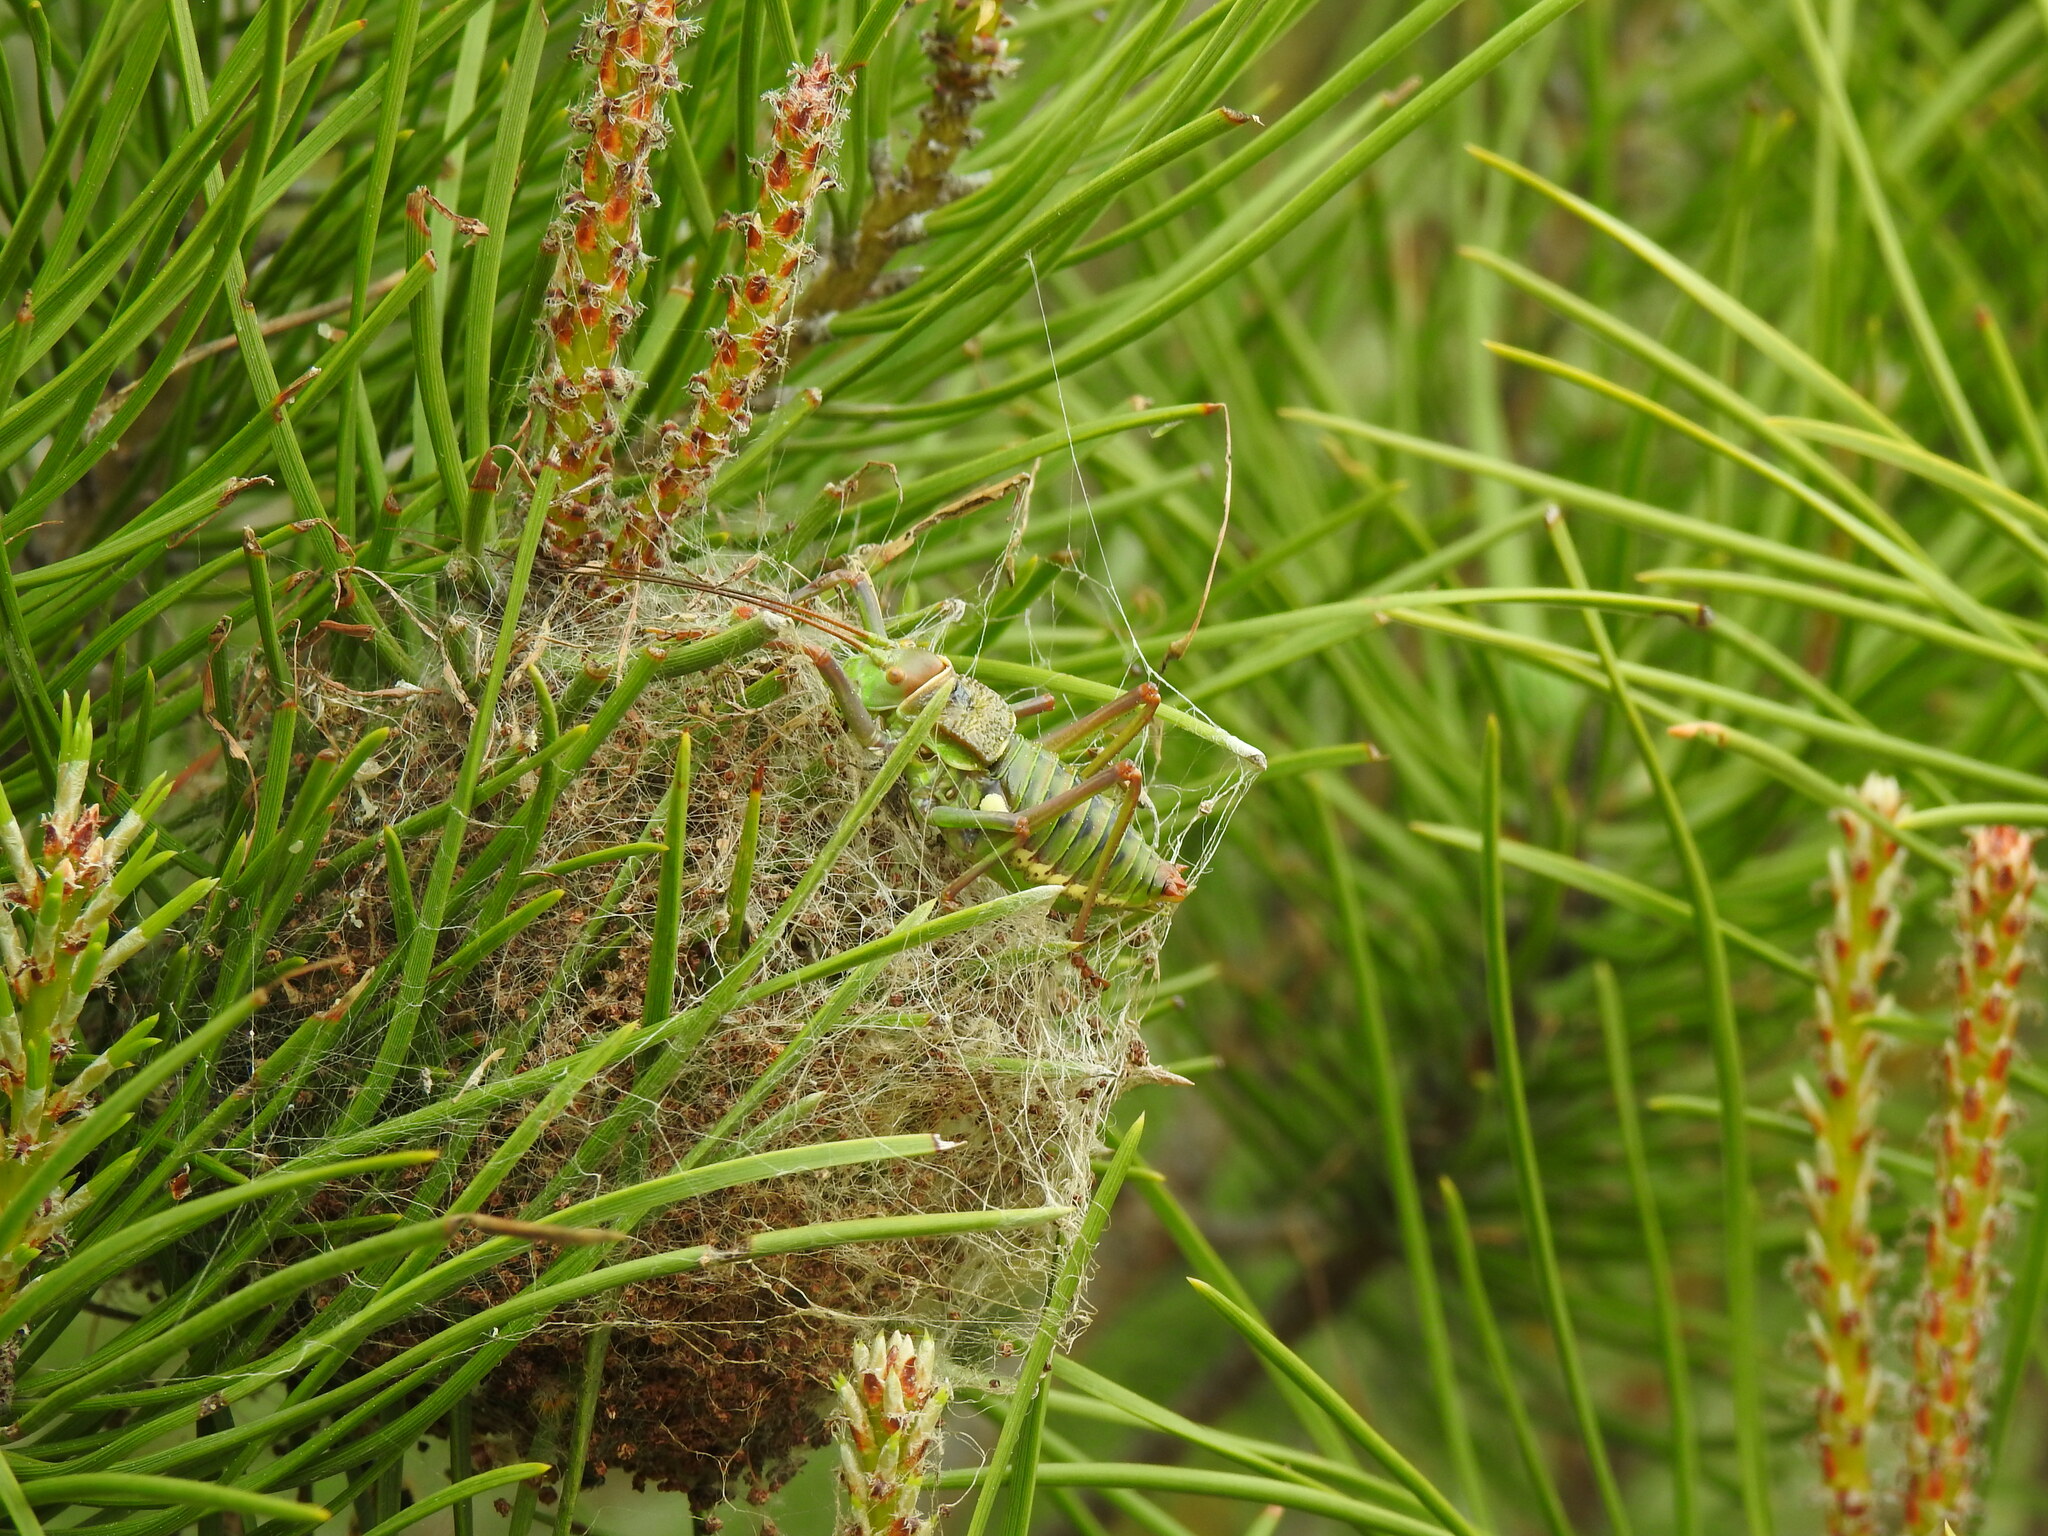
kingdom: Animalia
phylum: Arthropoda
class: Insecta
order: Lepidoptera
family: Notodontidae
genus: Thaumetopoea
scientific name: Thaumetopoea pityocampa
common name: Pine processionary
